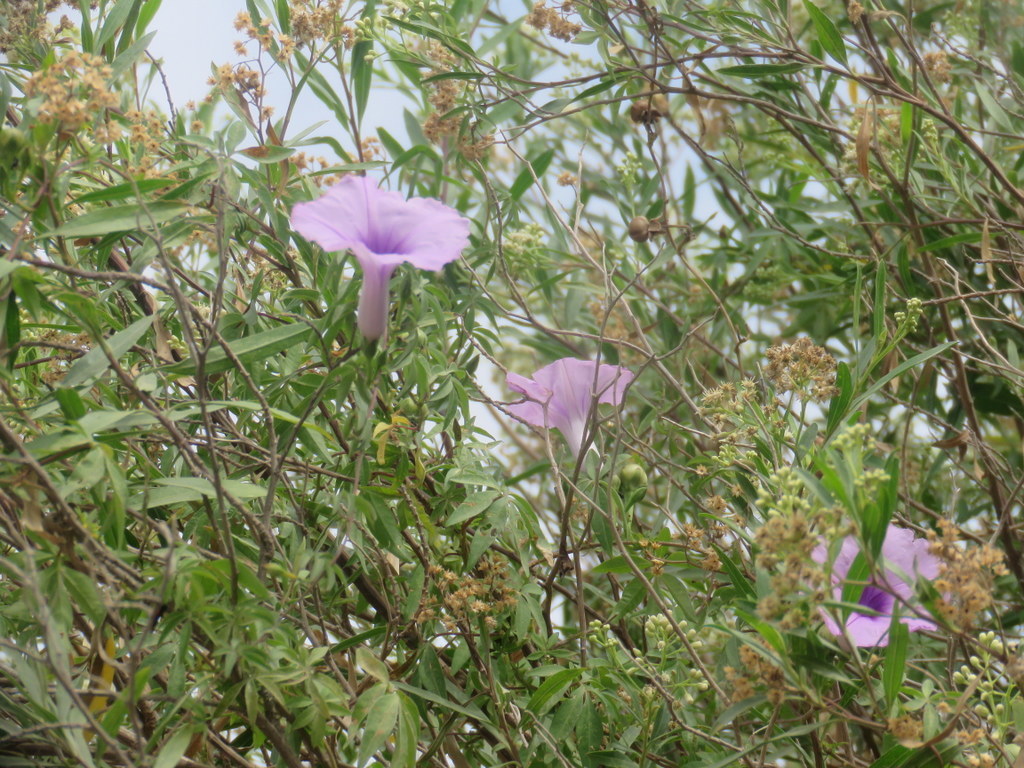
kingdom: Plantae
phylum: Tracheophyta
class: Magnoliopsida
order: Solanales
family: Convolvulaceae
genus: Ipomoea
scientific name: Ipomoea cairica
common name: Mile a minute vine
